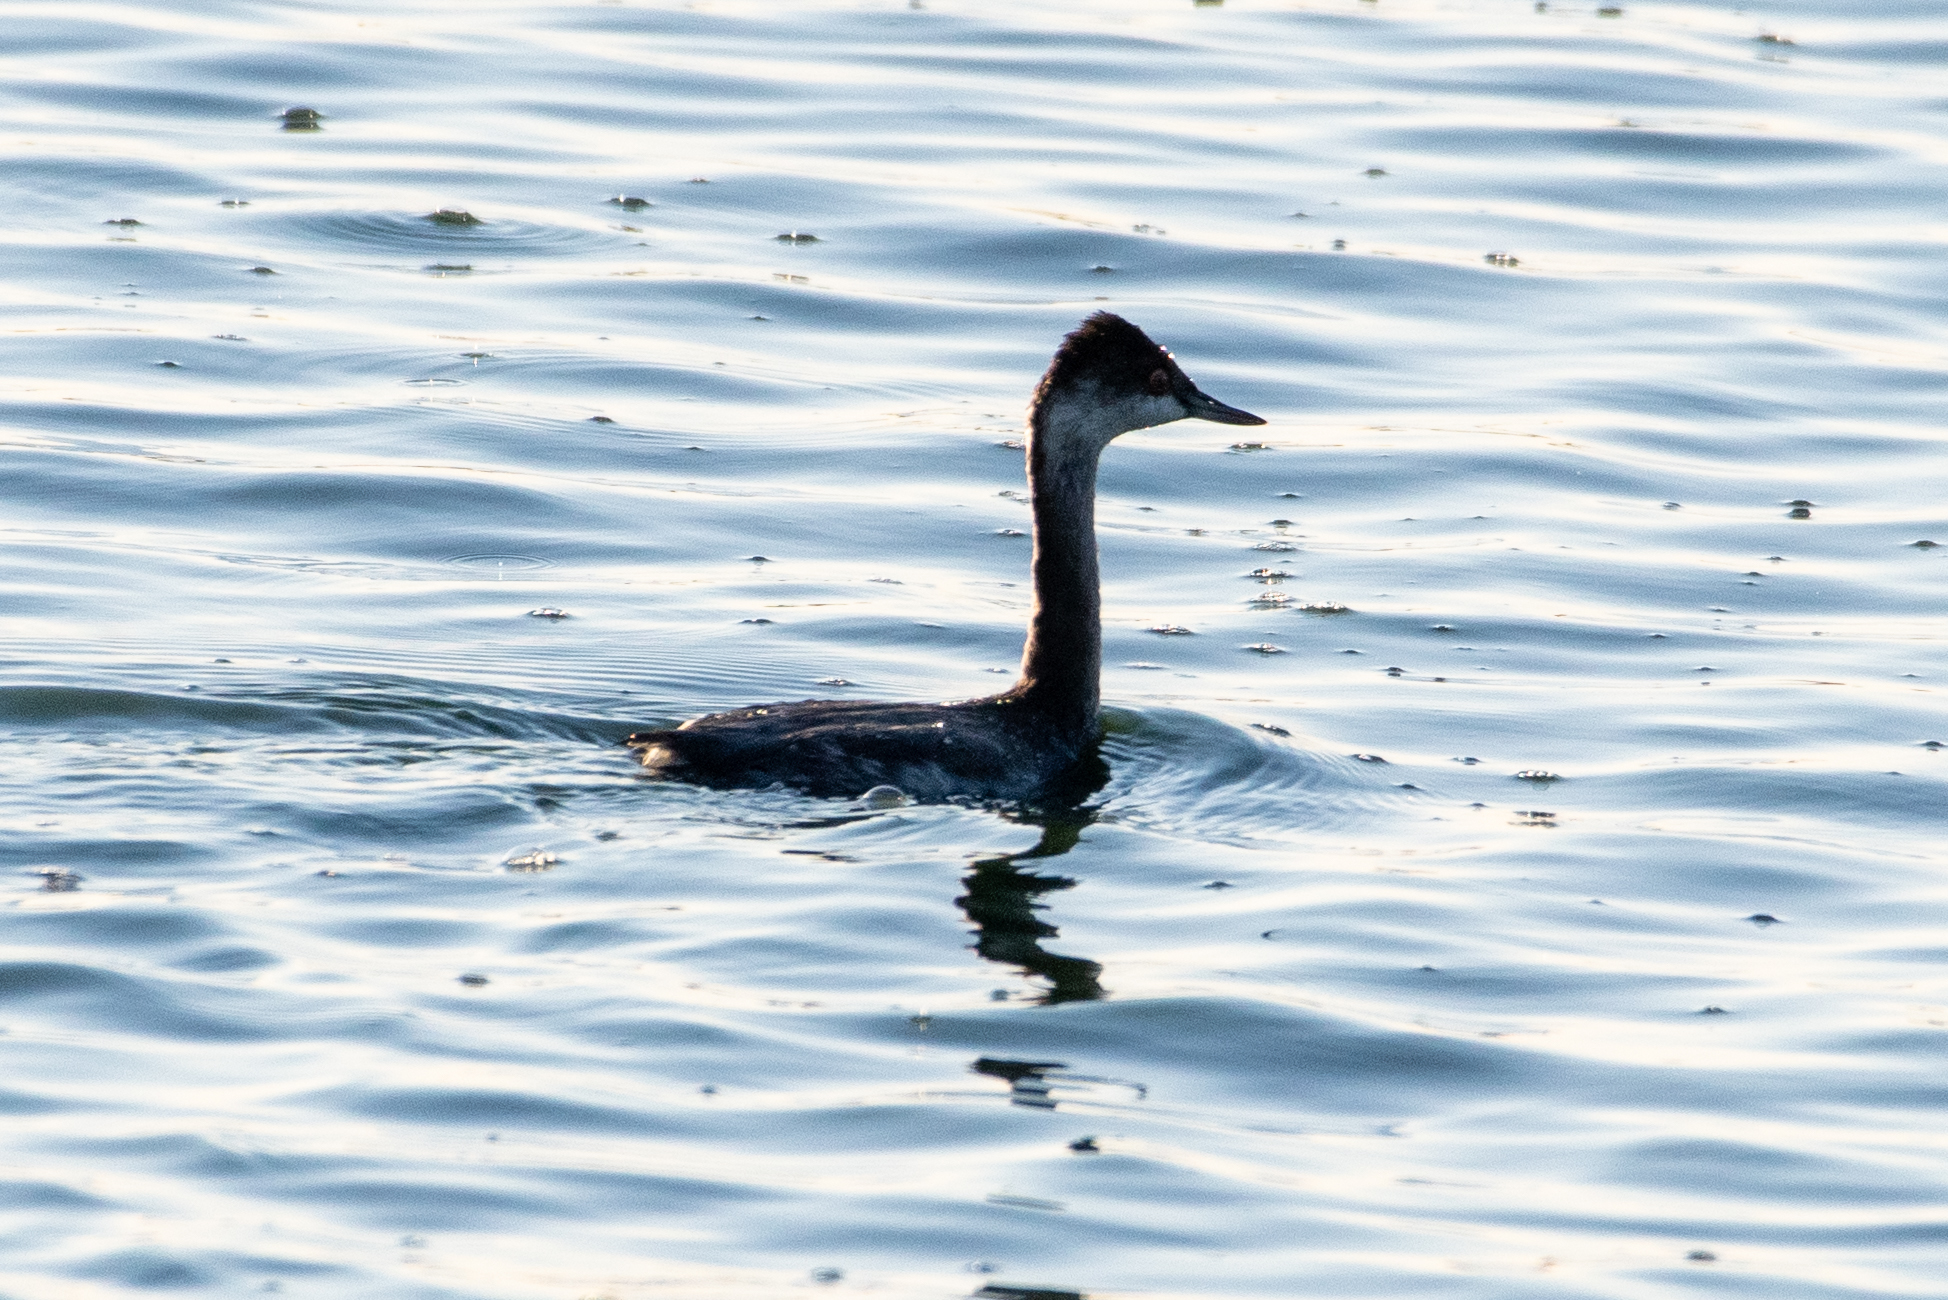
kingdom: Animalia
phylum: Chordata
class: Aves
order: Podicipediformes
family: Podicipedidae
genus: Podiceps
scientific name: Podiceps nigricollis
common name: Black-necked grebe
